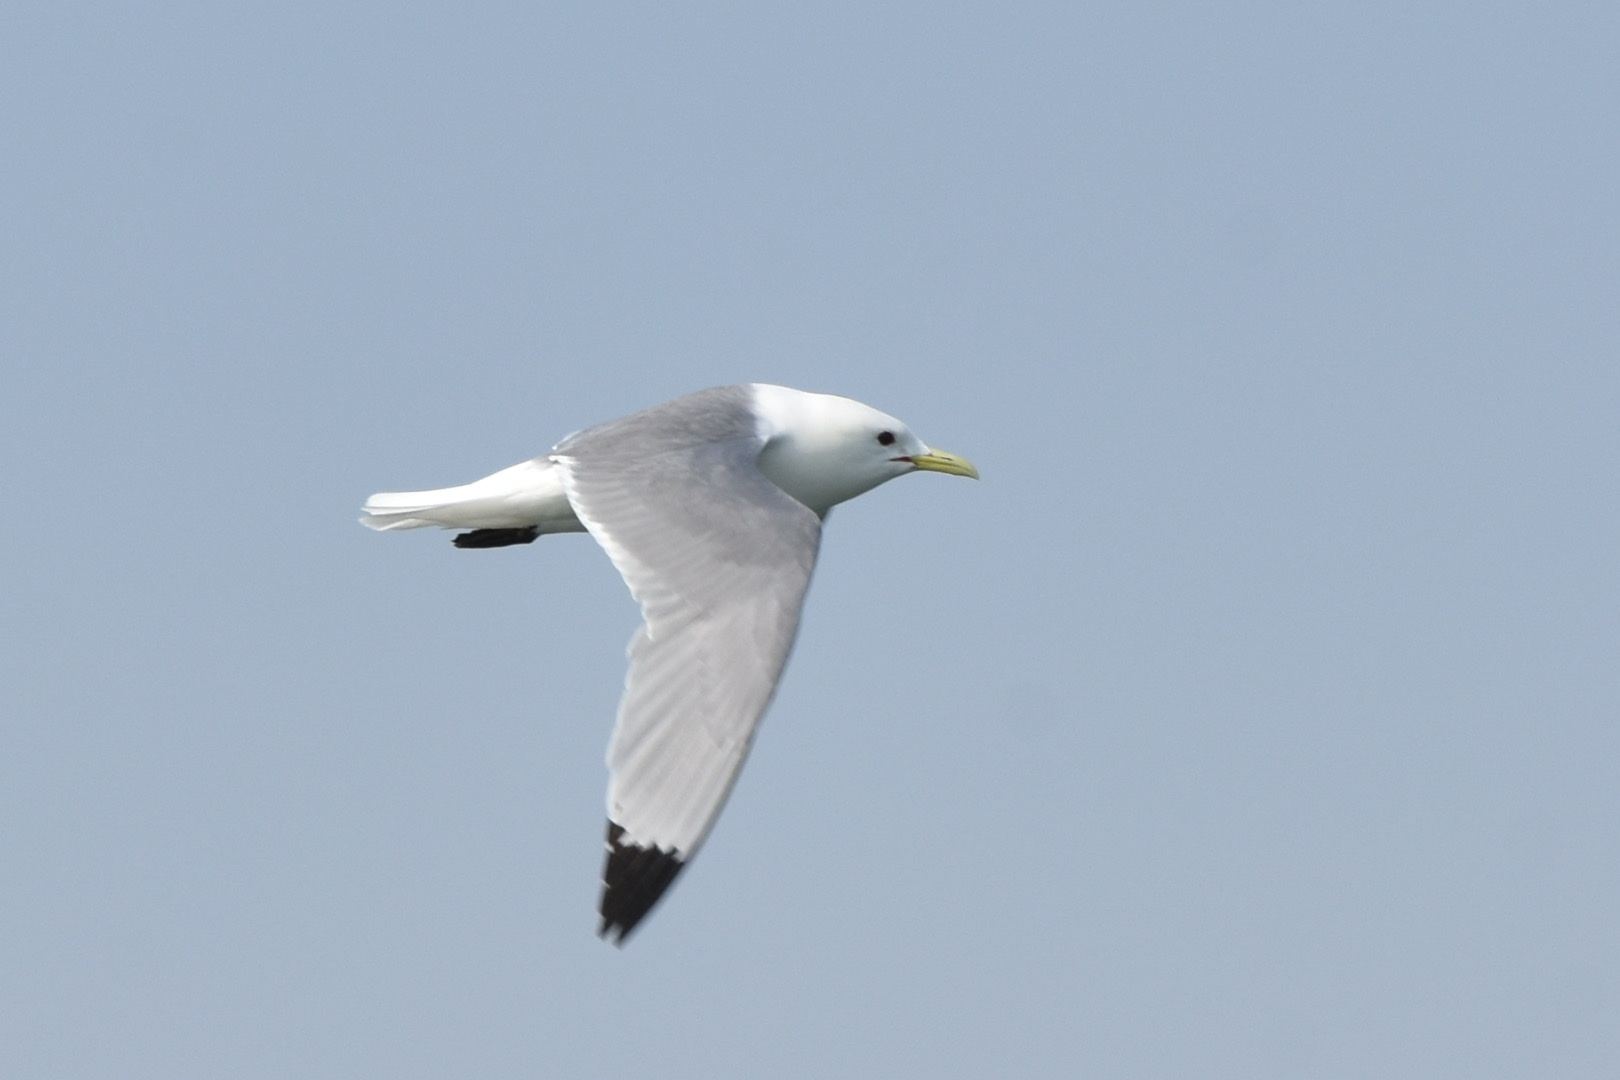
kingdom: Animalia
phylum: Chordata
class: Aves
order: Charadriiformes
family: Laridae
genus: Rissa
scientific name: Rissa tridactyla
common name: Black-legged kittiwake
